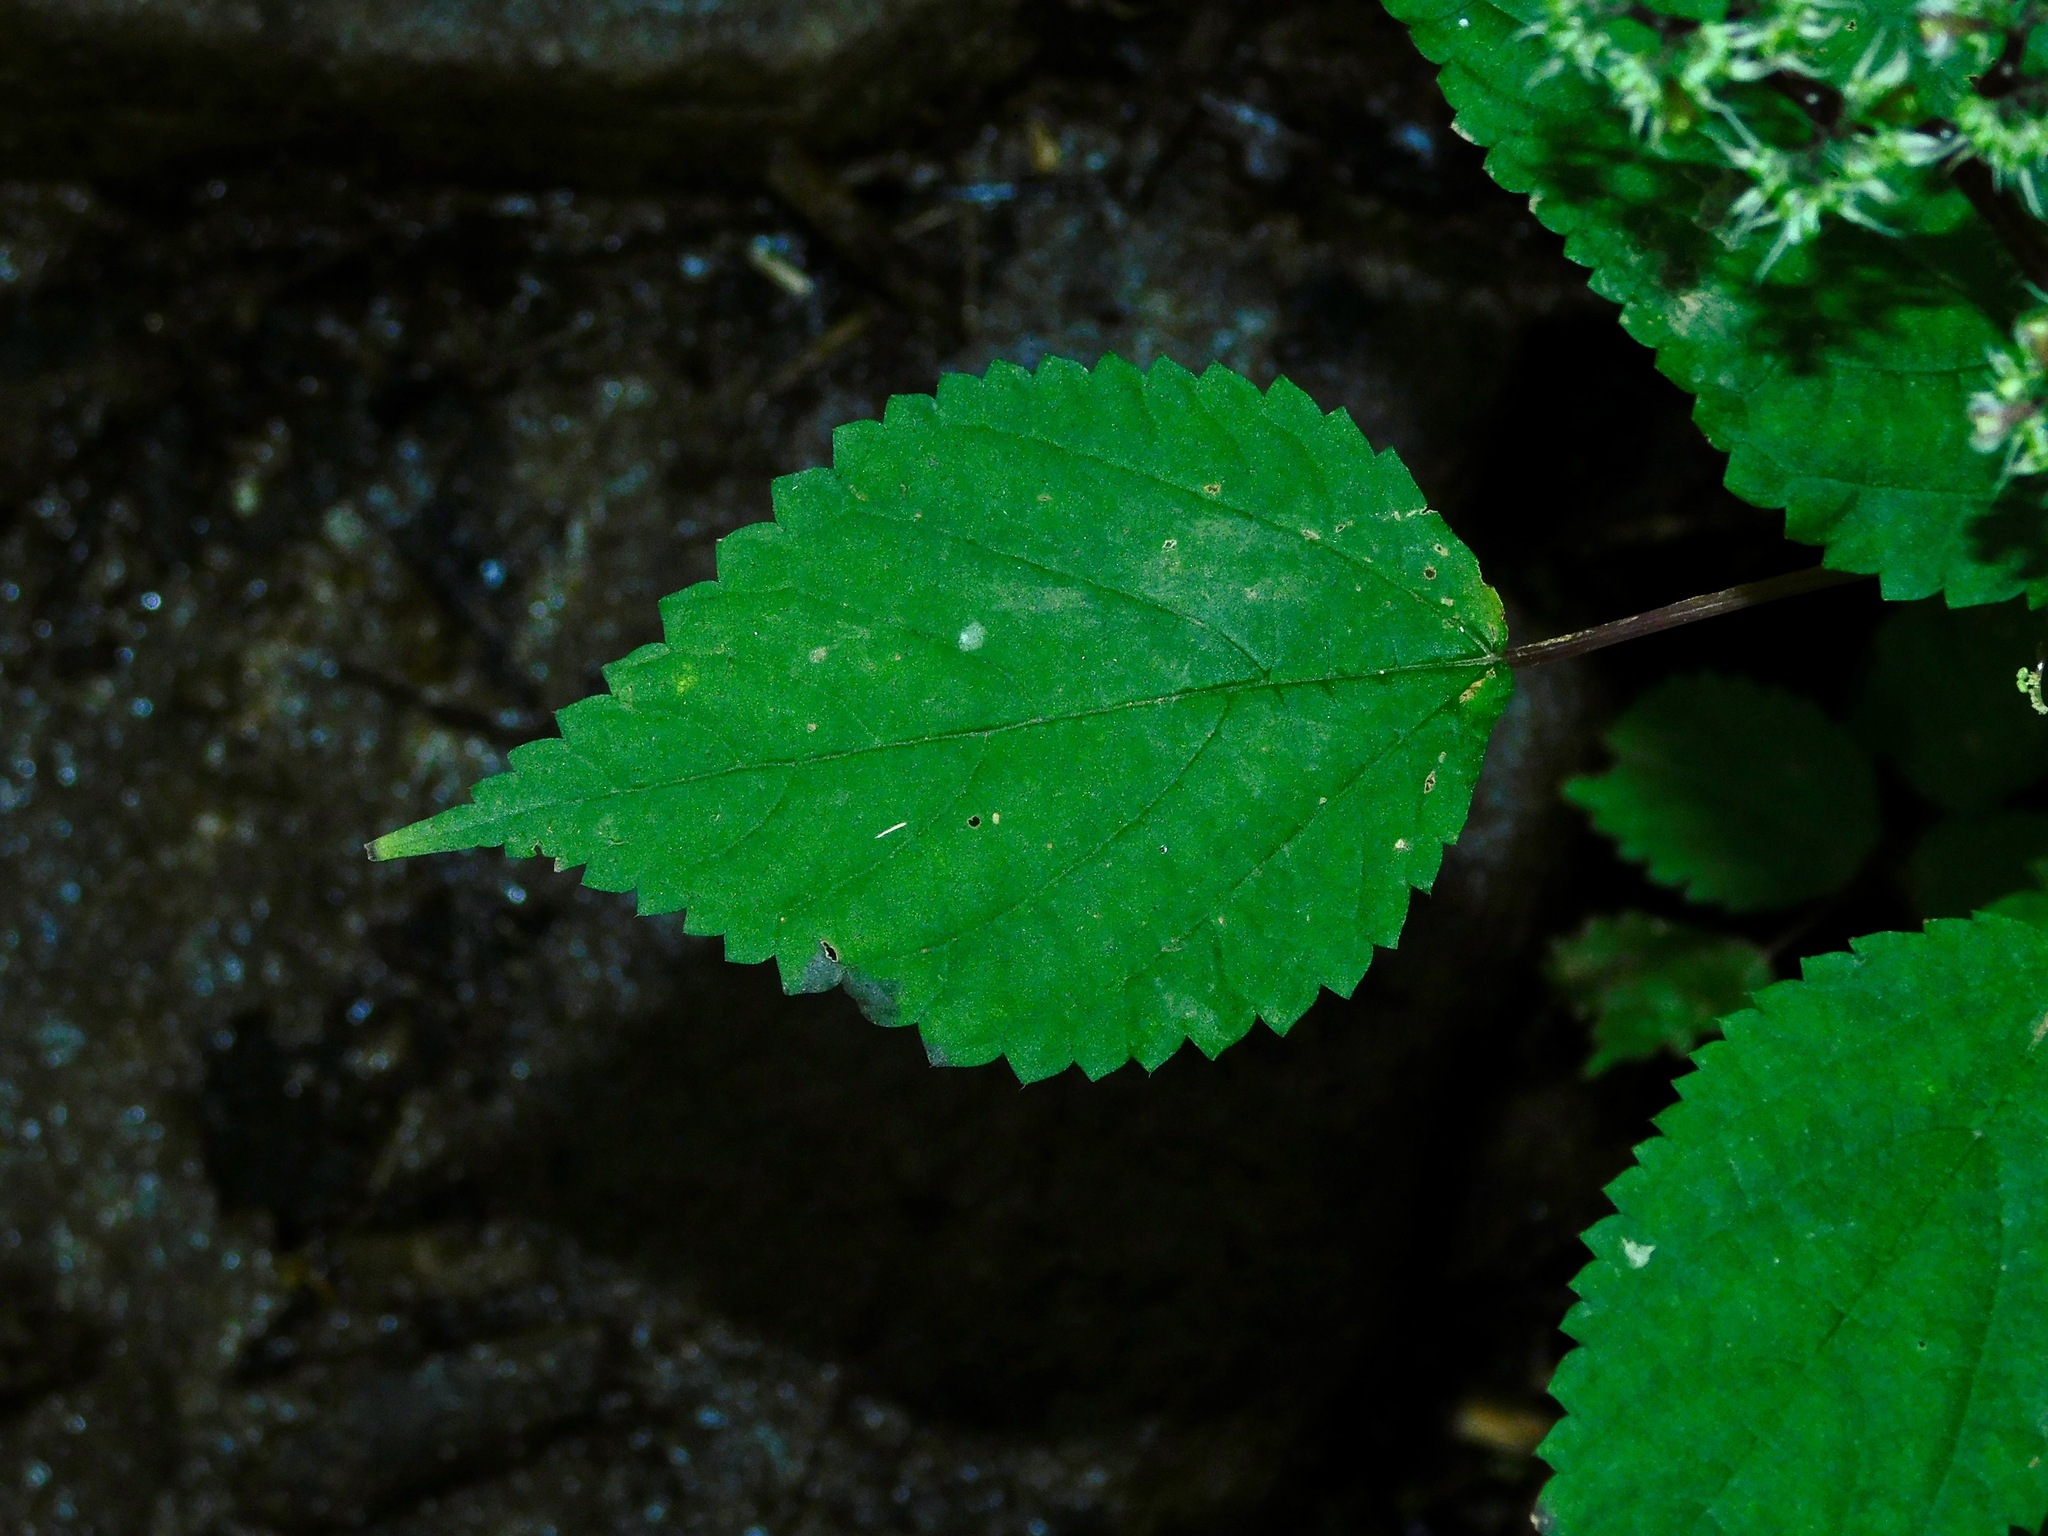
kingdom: Plantae
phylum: Tracheophyta
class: Magnoliopsida
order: Rosales
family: Urticaceae
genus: Laportea
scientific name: Laportea canadensis
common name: Canada nettle
